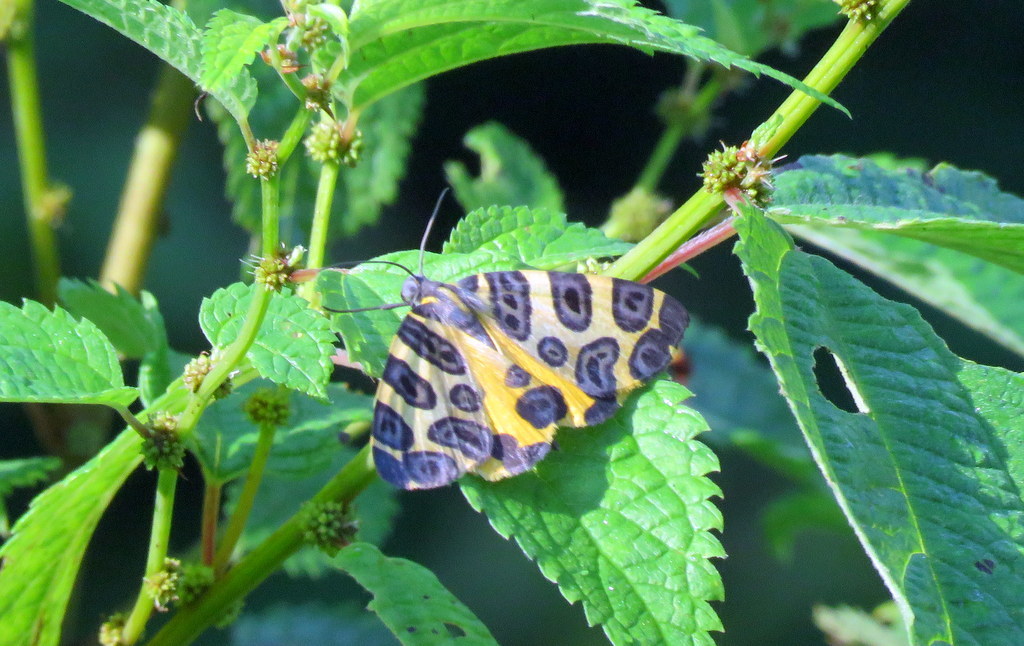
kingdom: Animalia
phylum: Arthropoda
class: Insecta
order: Lepidoptera
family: Geometridae
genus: Pantherodes
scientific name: Pantherodes pardalaria
